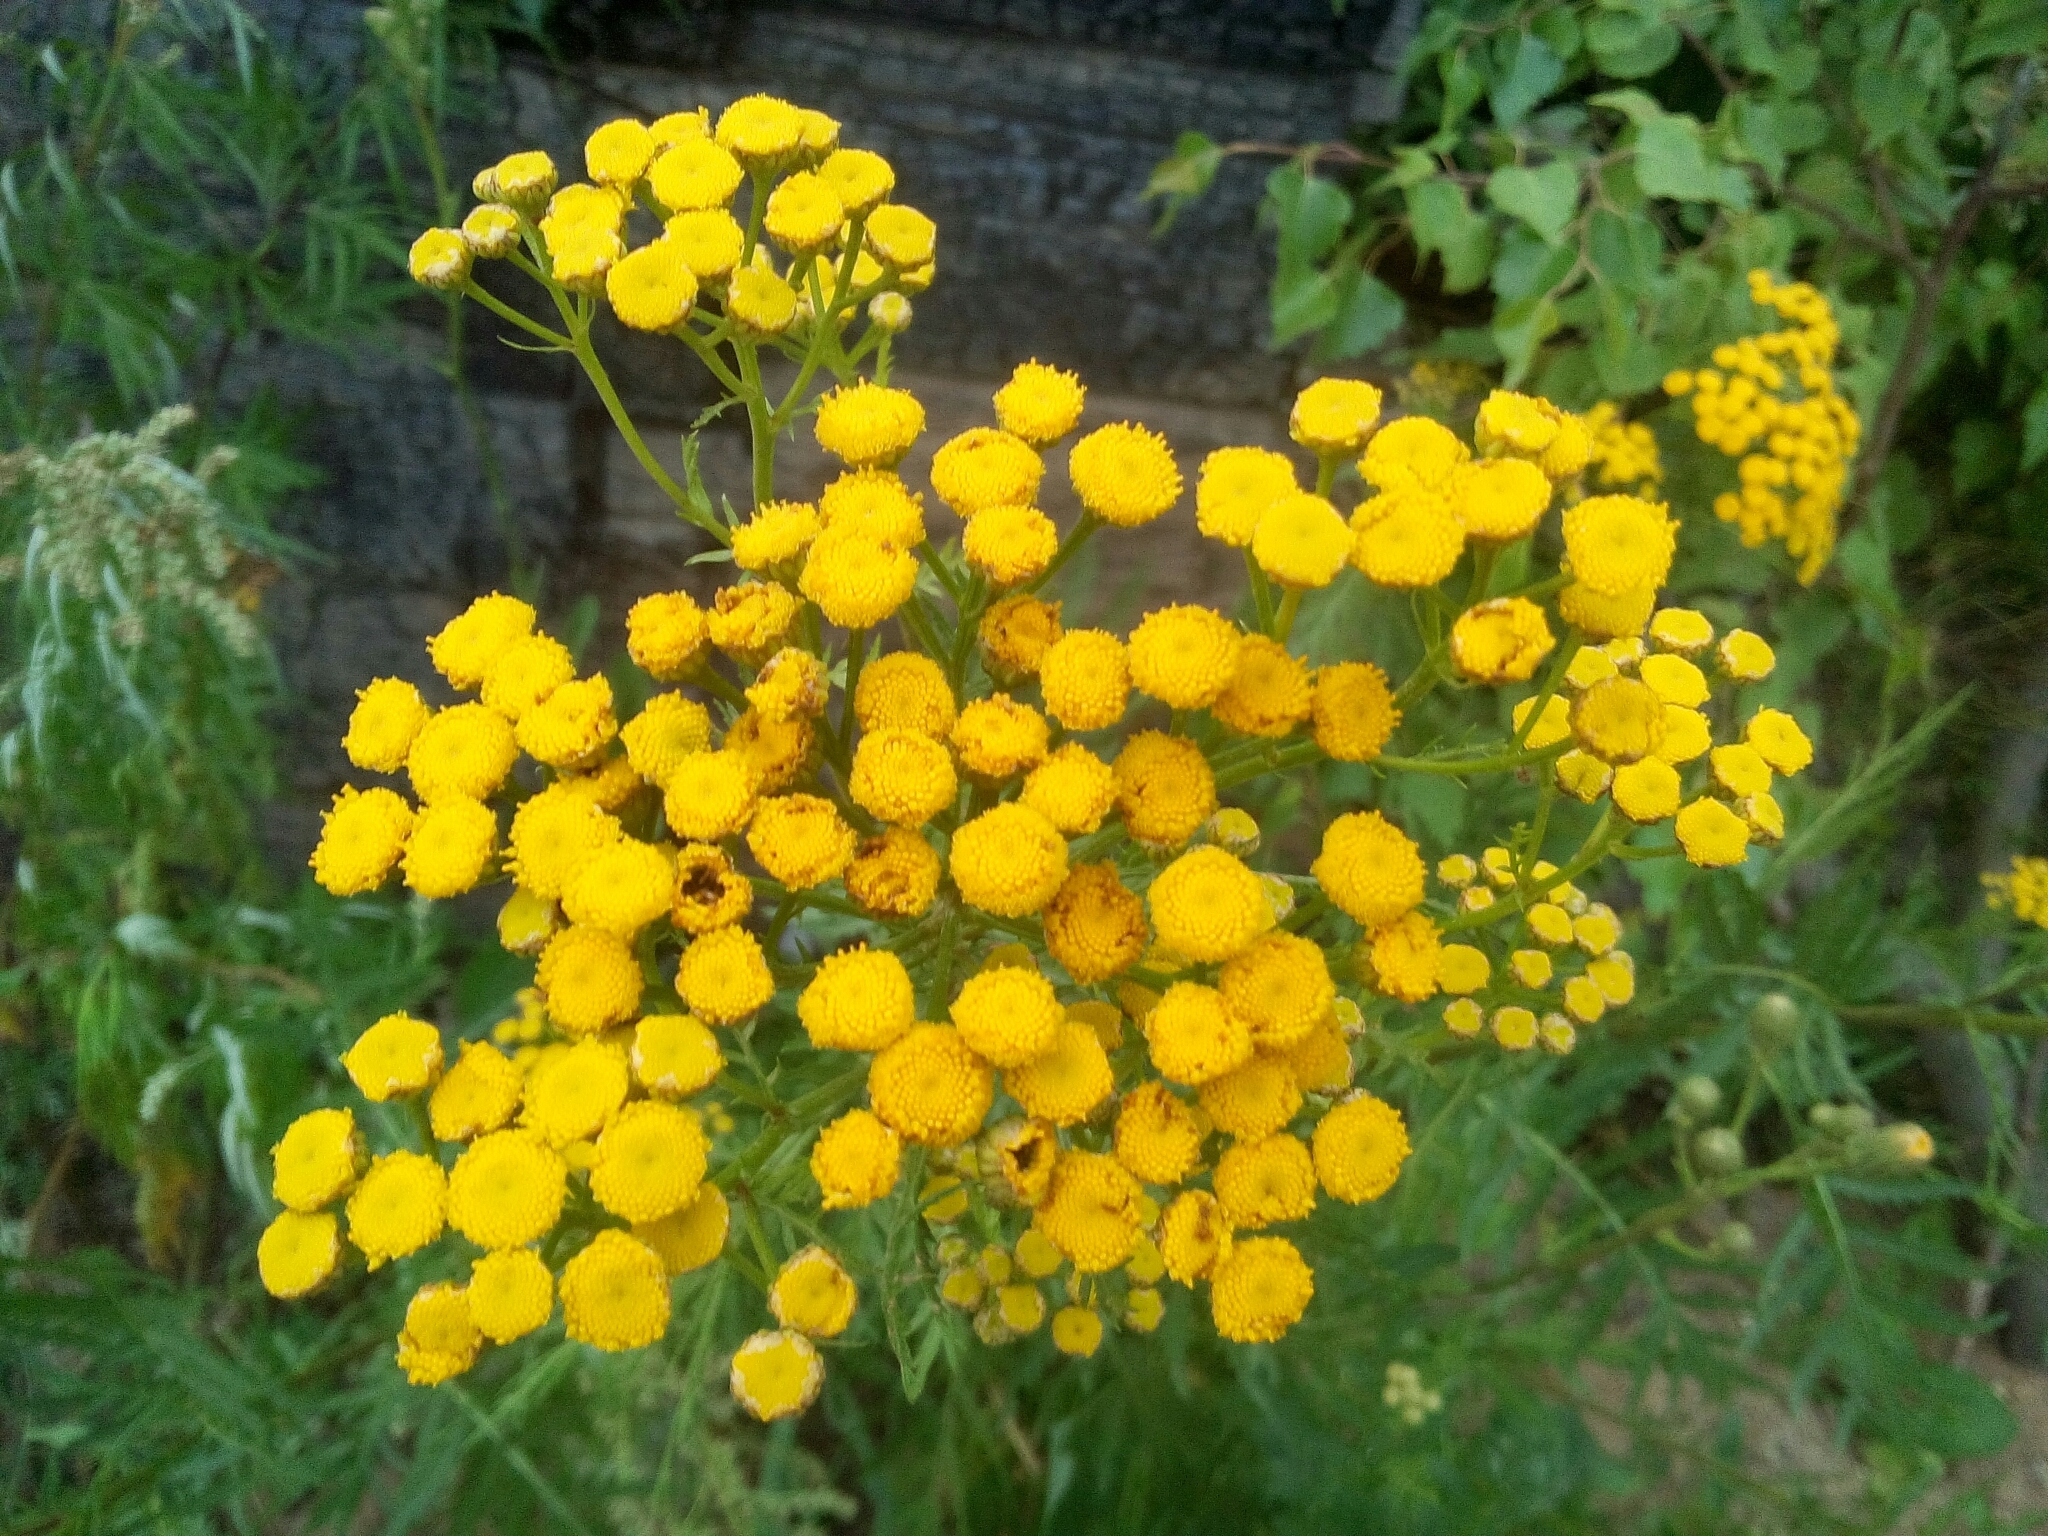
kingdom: Plantae
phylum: Tracheophyta
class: Magnoliopsida
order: Asterales
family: Asteraceae
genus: Tanacetum
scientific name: Tanacetum vulgare
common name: Common tansy
